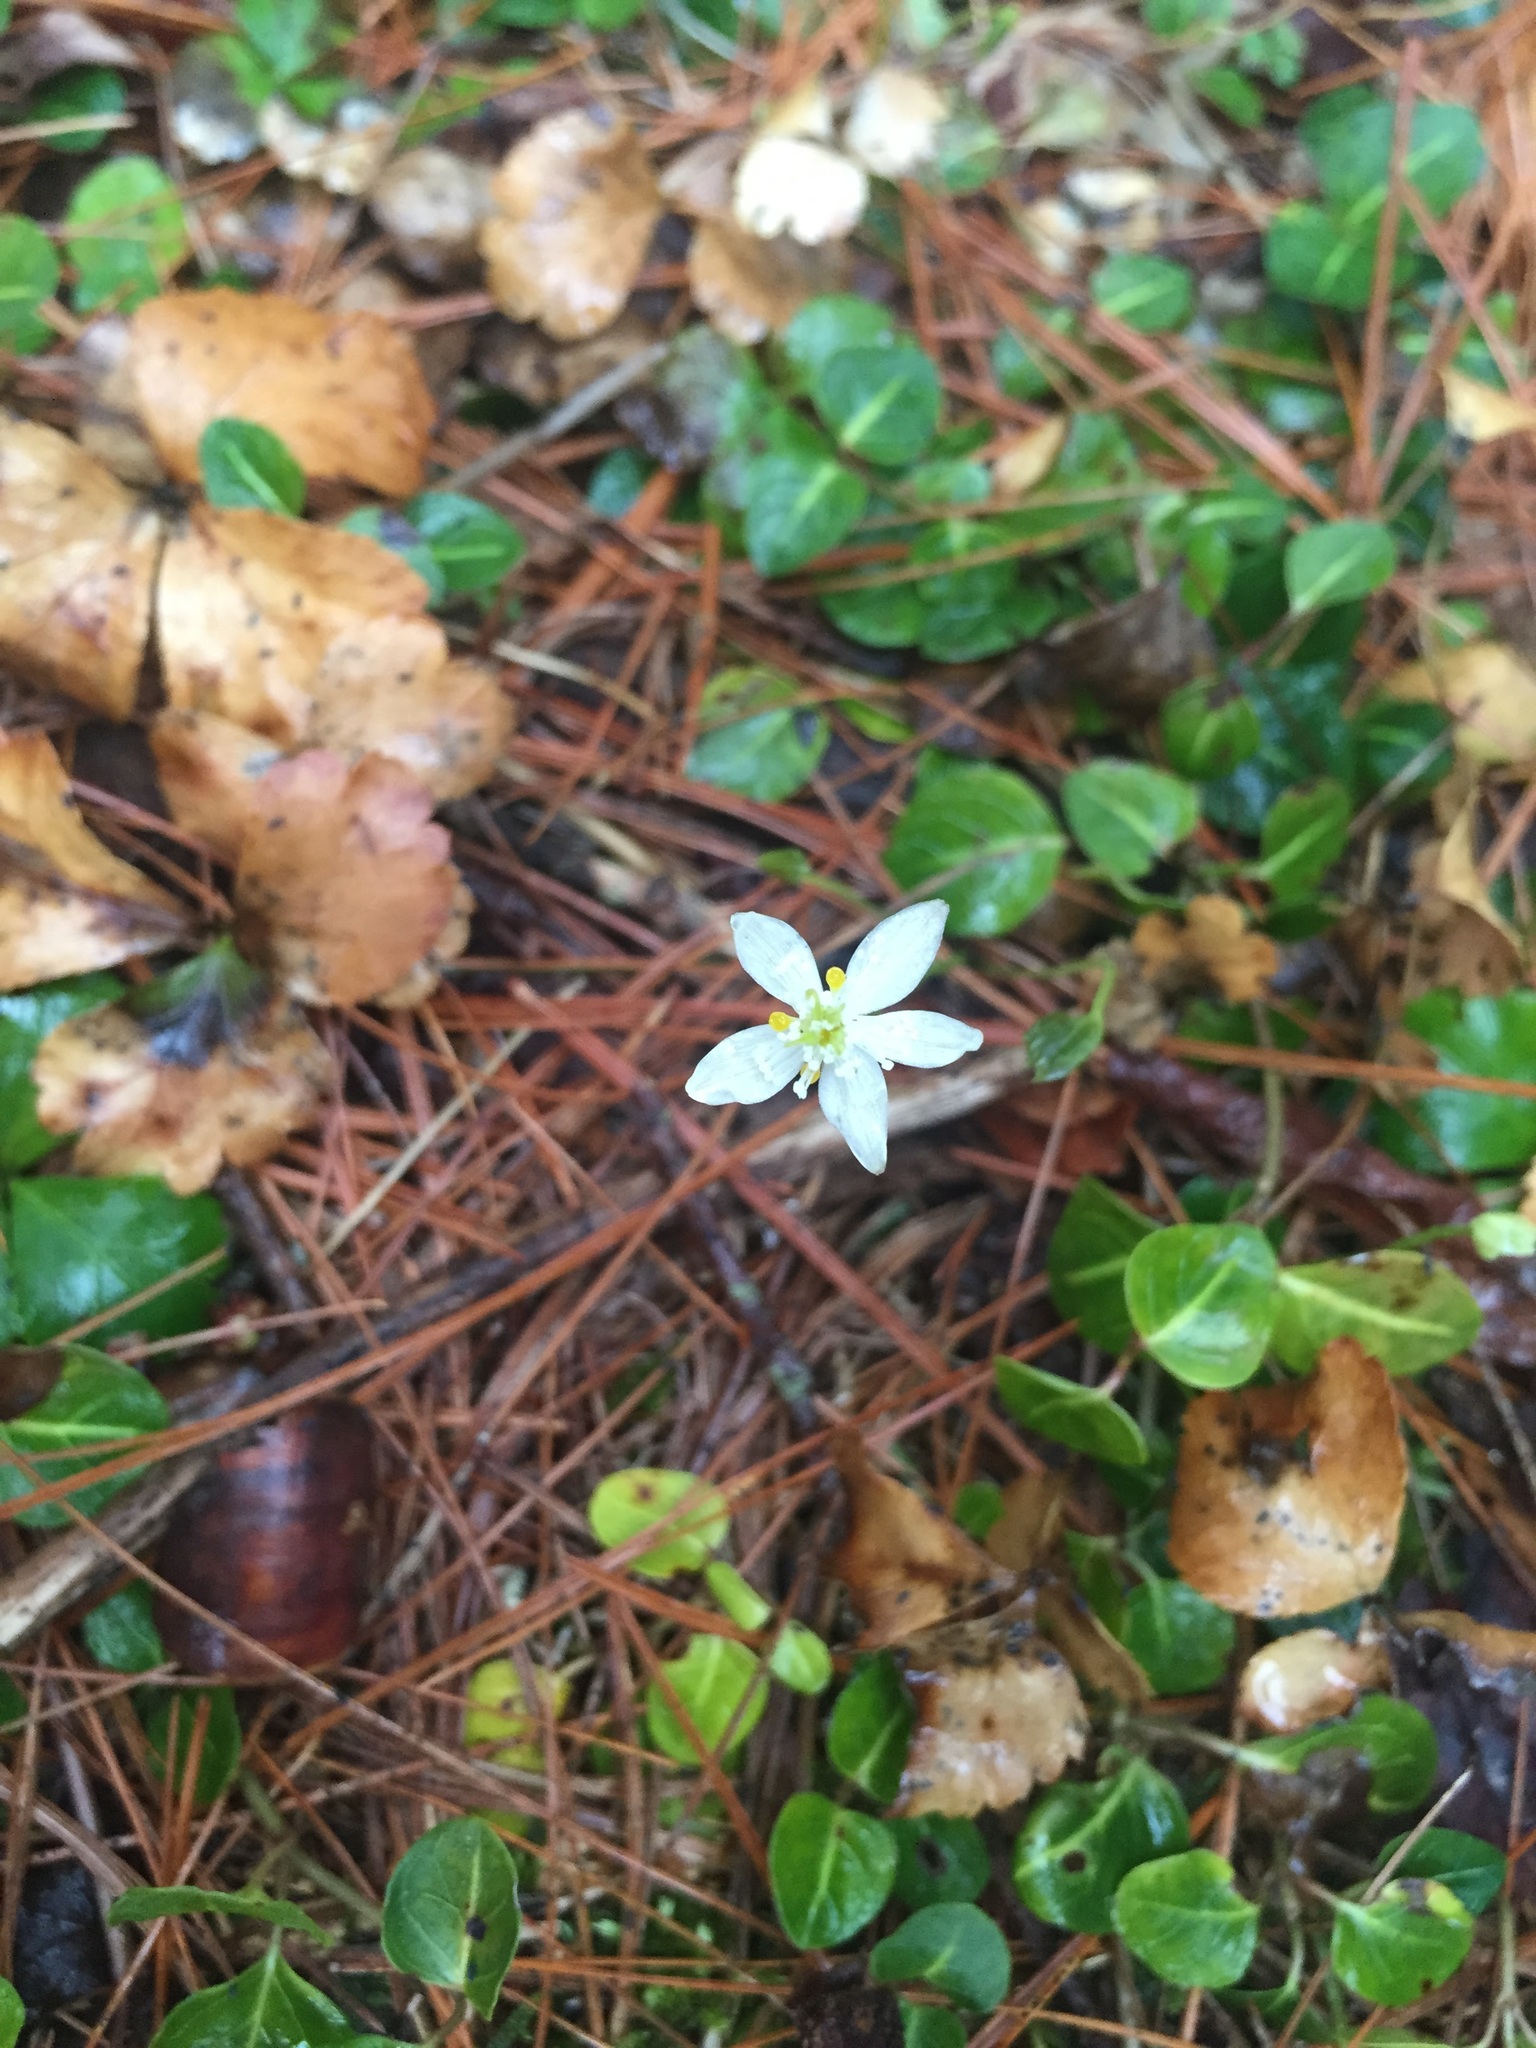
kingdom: Plantae
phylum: Tracheophyta
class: Magnoliopsida
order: Ranunculales
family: Ranunculaceae
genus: Coptis
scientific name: Coptis trifolia
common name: Canker-root
